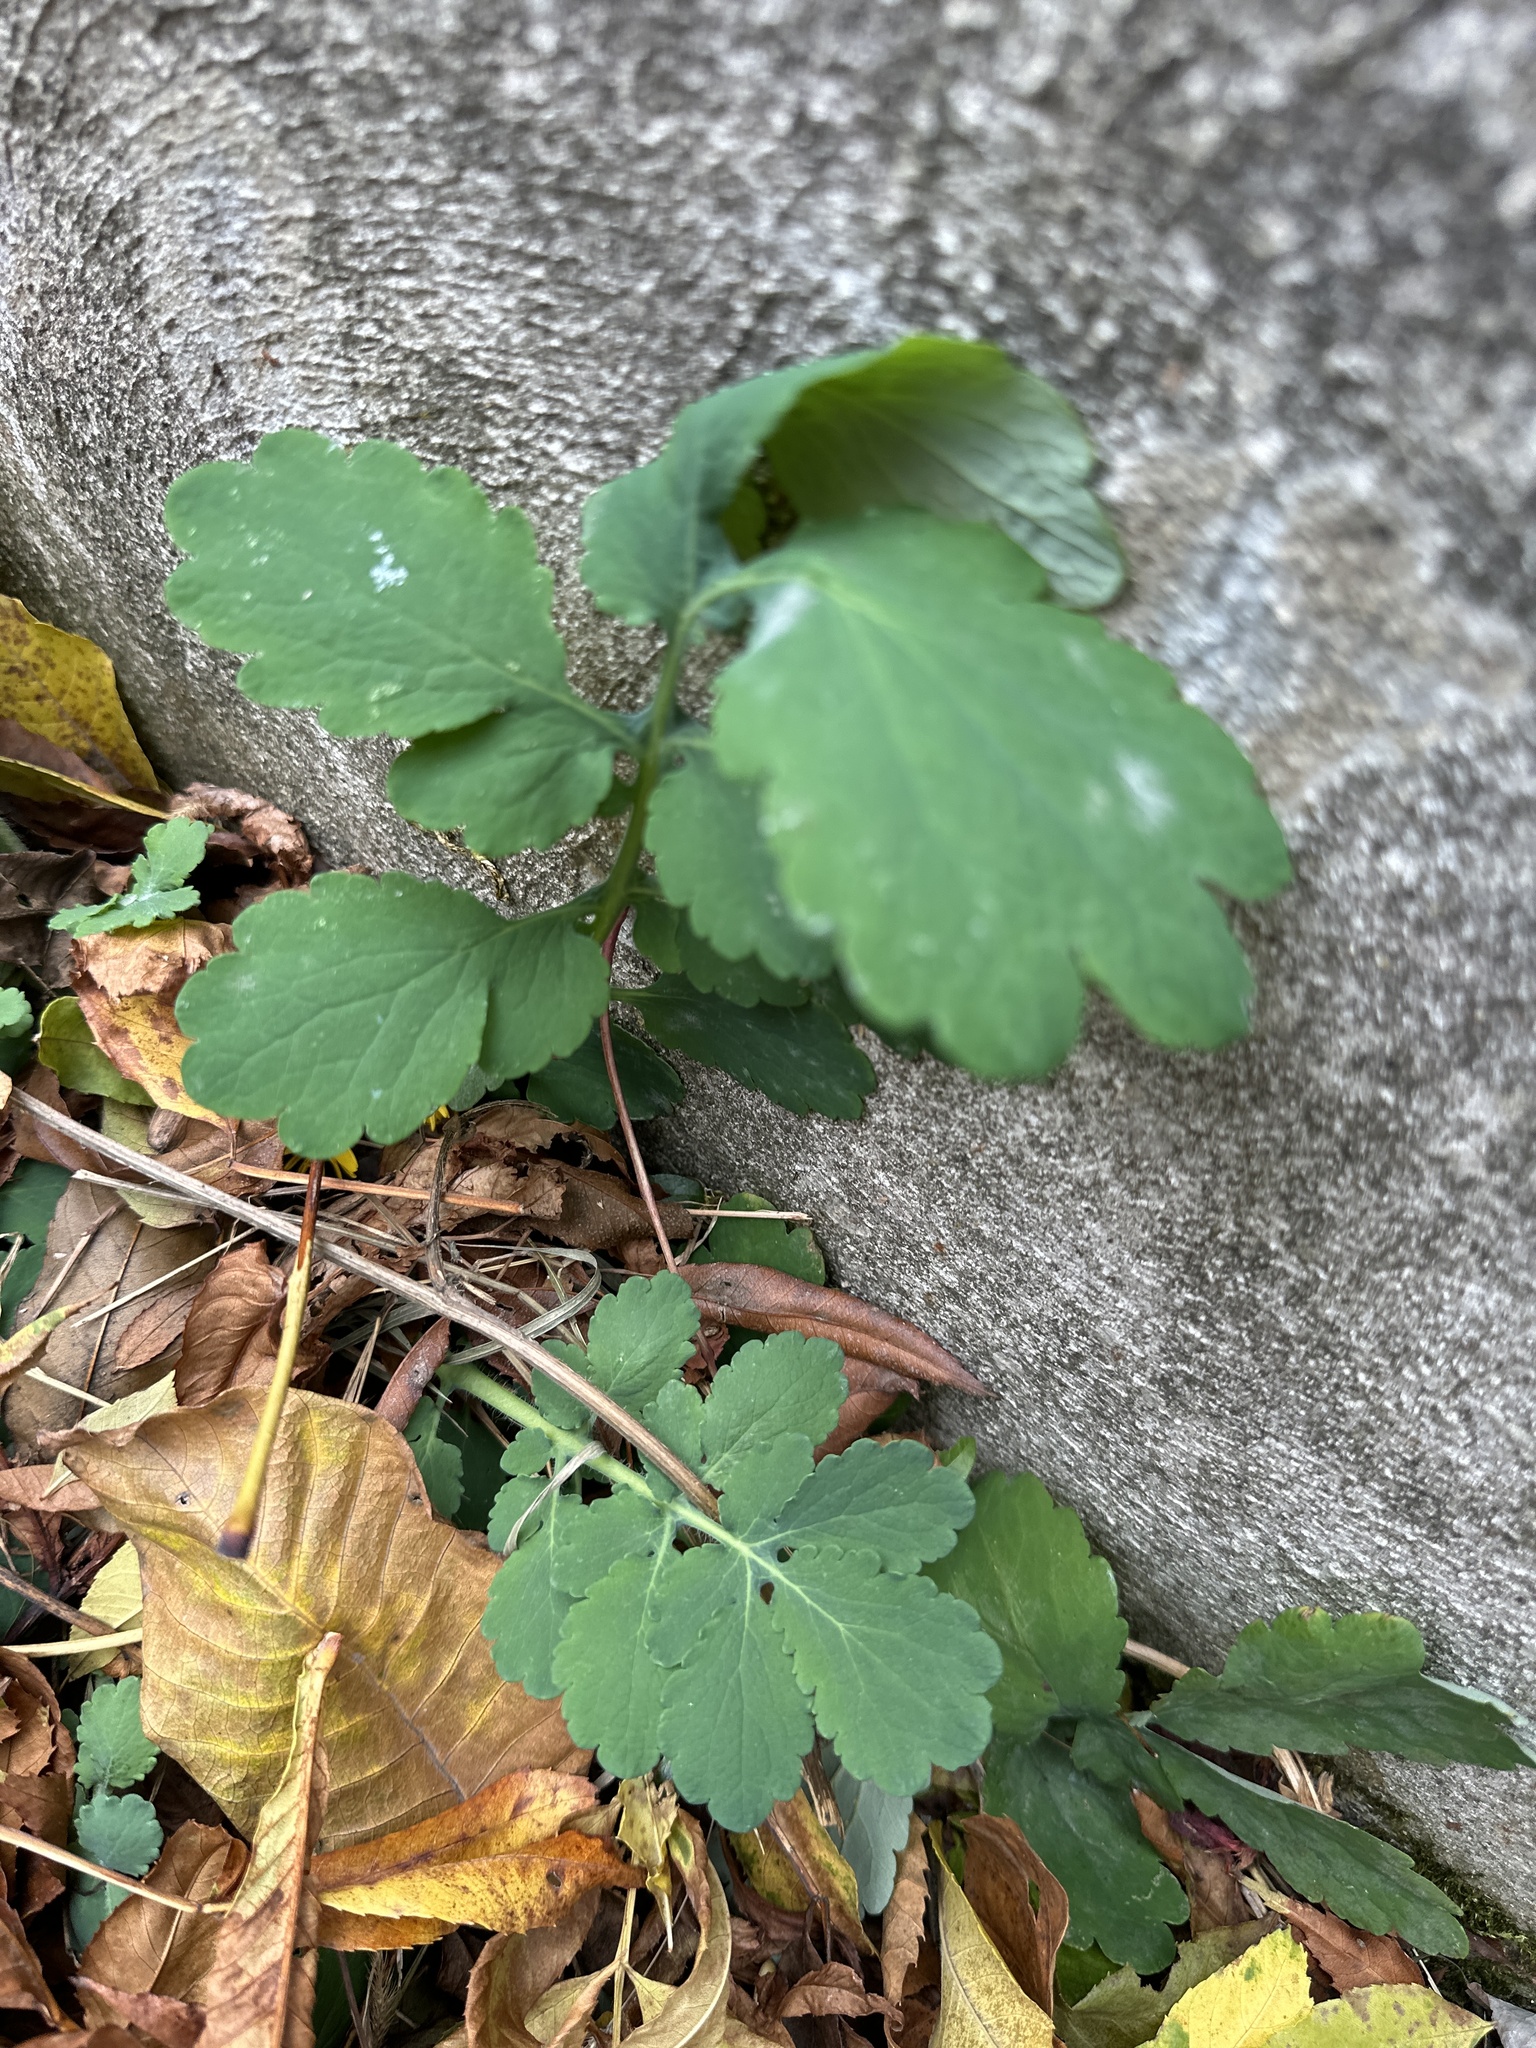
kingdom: Plantae
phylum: Tracheophyta
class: Magnoliopsida
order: Ranunculales
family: Papaveraceae
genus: Chelidonium
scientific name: Chelidonium majus
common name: Greater celandine
